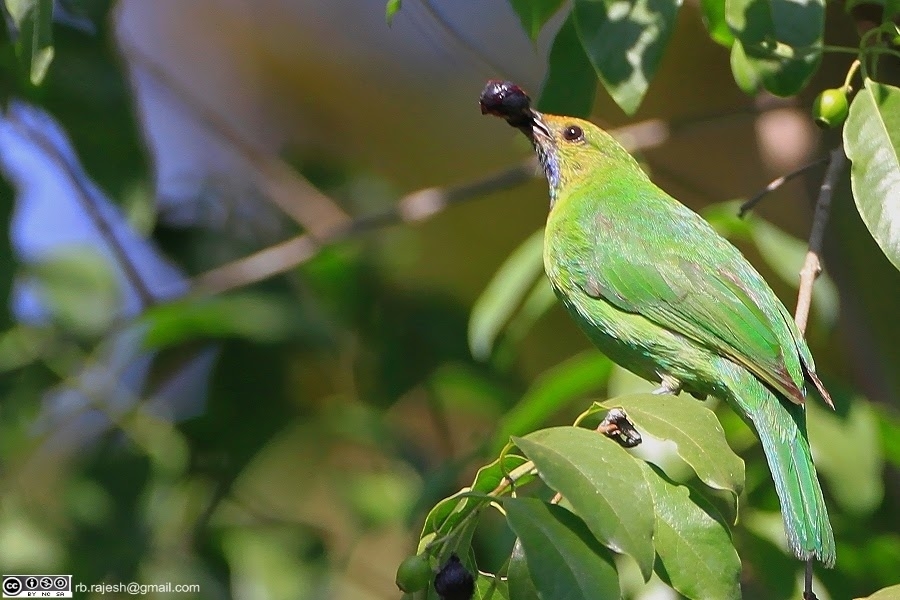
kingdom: Animalia
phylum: Chordata
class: Aves
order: Passeriformes
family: Chloropseidae
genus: Chloropsis
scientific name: Chloropsis jerdoni
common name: Jerdon's leafbird
